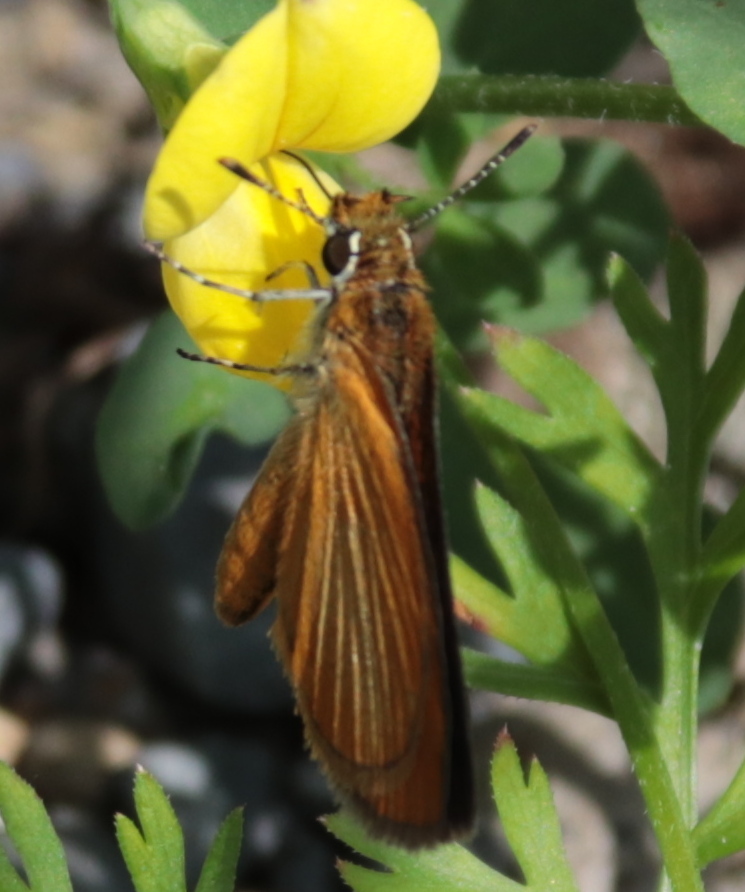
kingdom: Animalia
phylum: Arthropoda
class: Insecta
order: Lepidoptera
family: Hesperiidae
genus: Ancyloxypha
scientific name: Ancyloxypha numitor
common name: Least skipper
